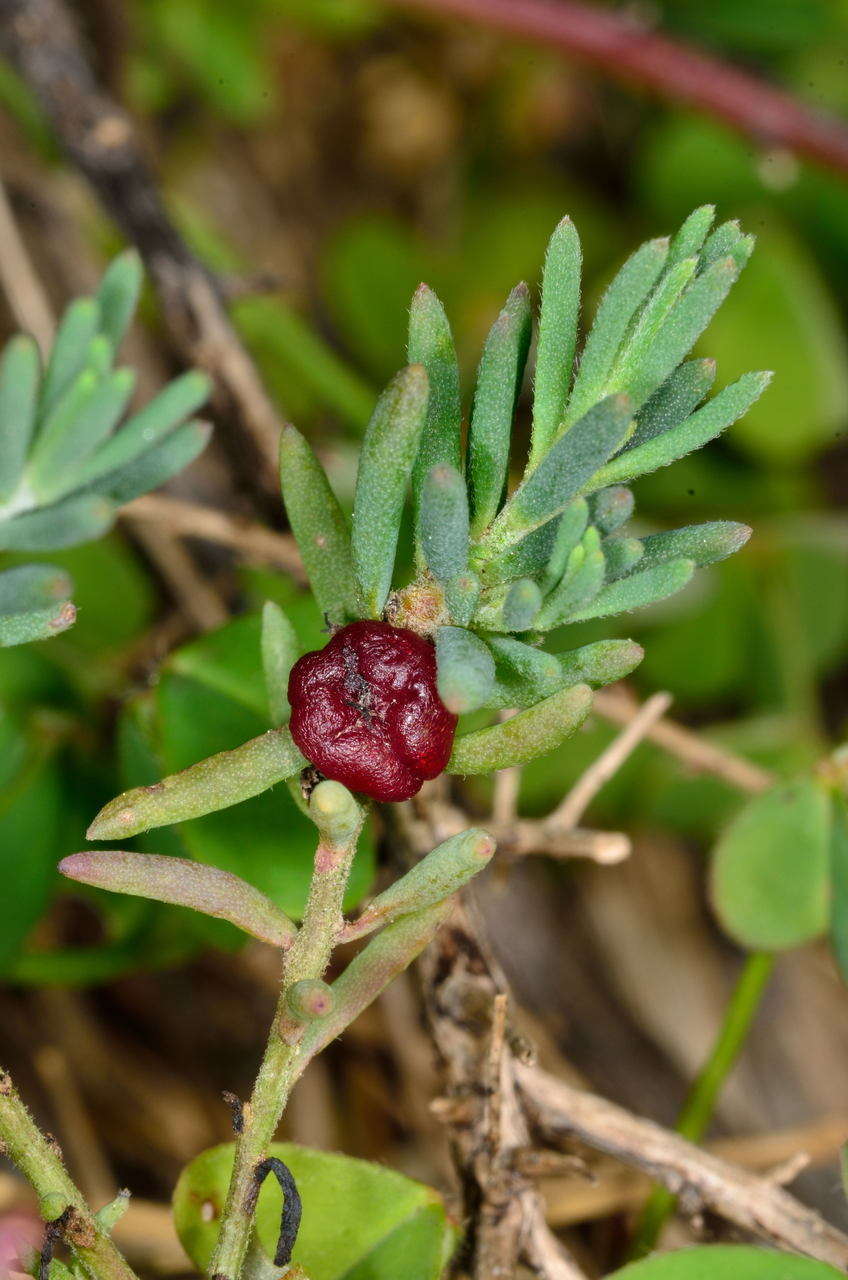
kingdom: Plantae
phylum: Tracheophyta
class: Magnoliopsida
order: Caryophyllales
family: Amaranthaceae
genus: Enchylaena
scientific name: Enchylaena tomentosa
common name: Ruby saltbush
